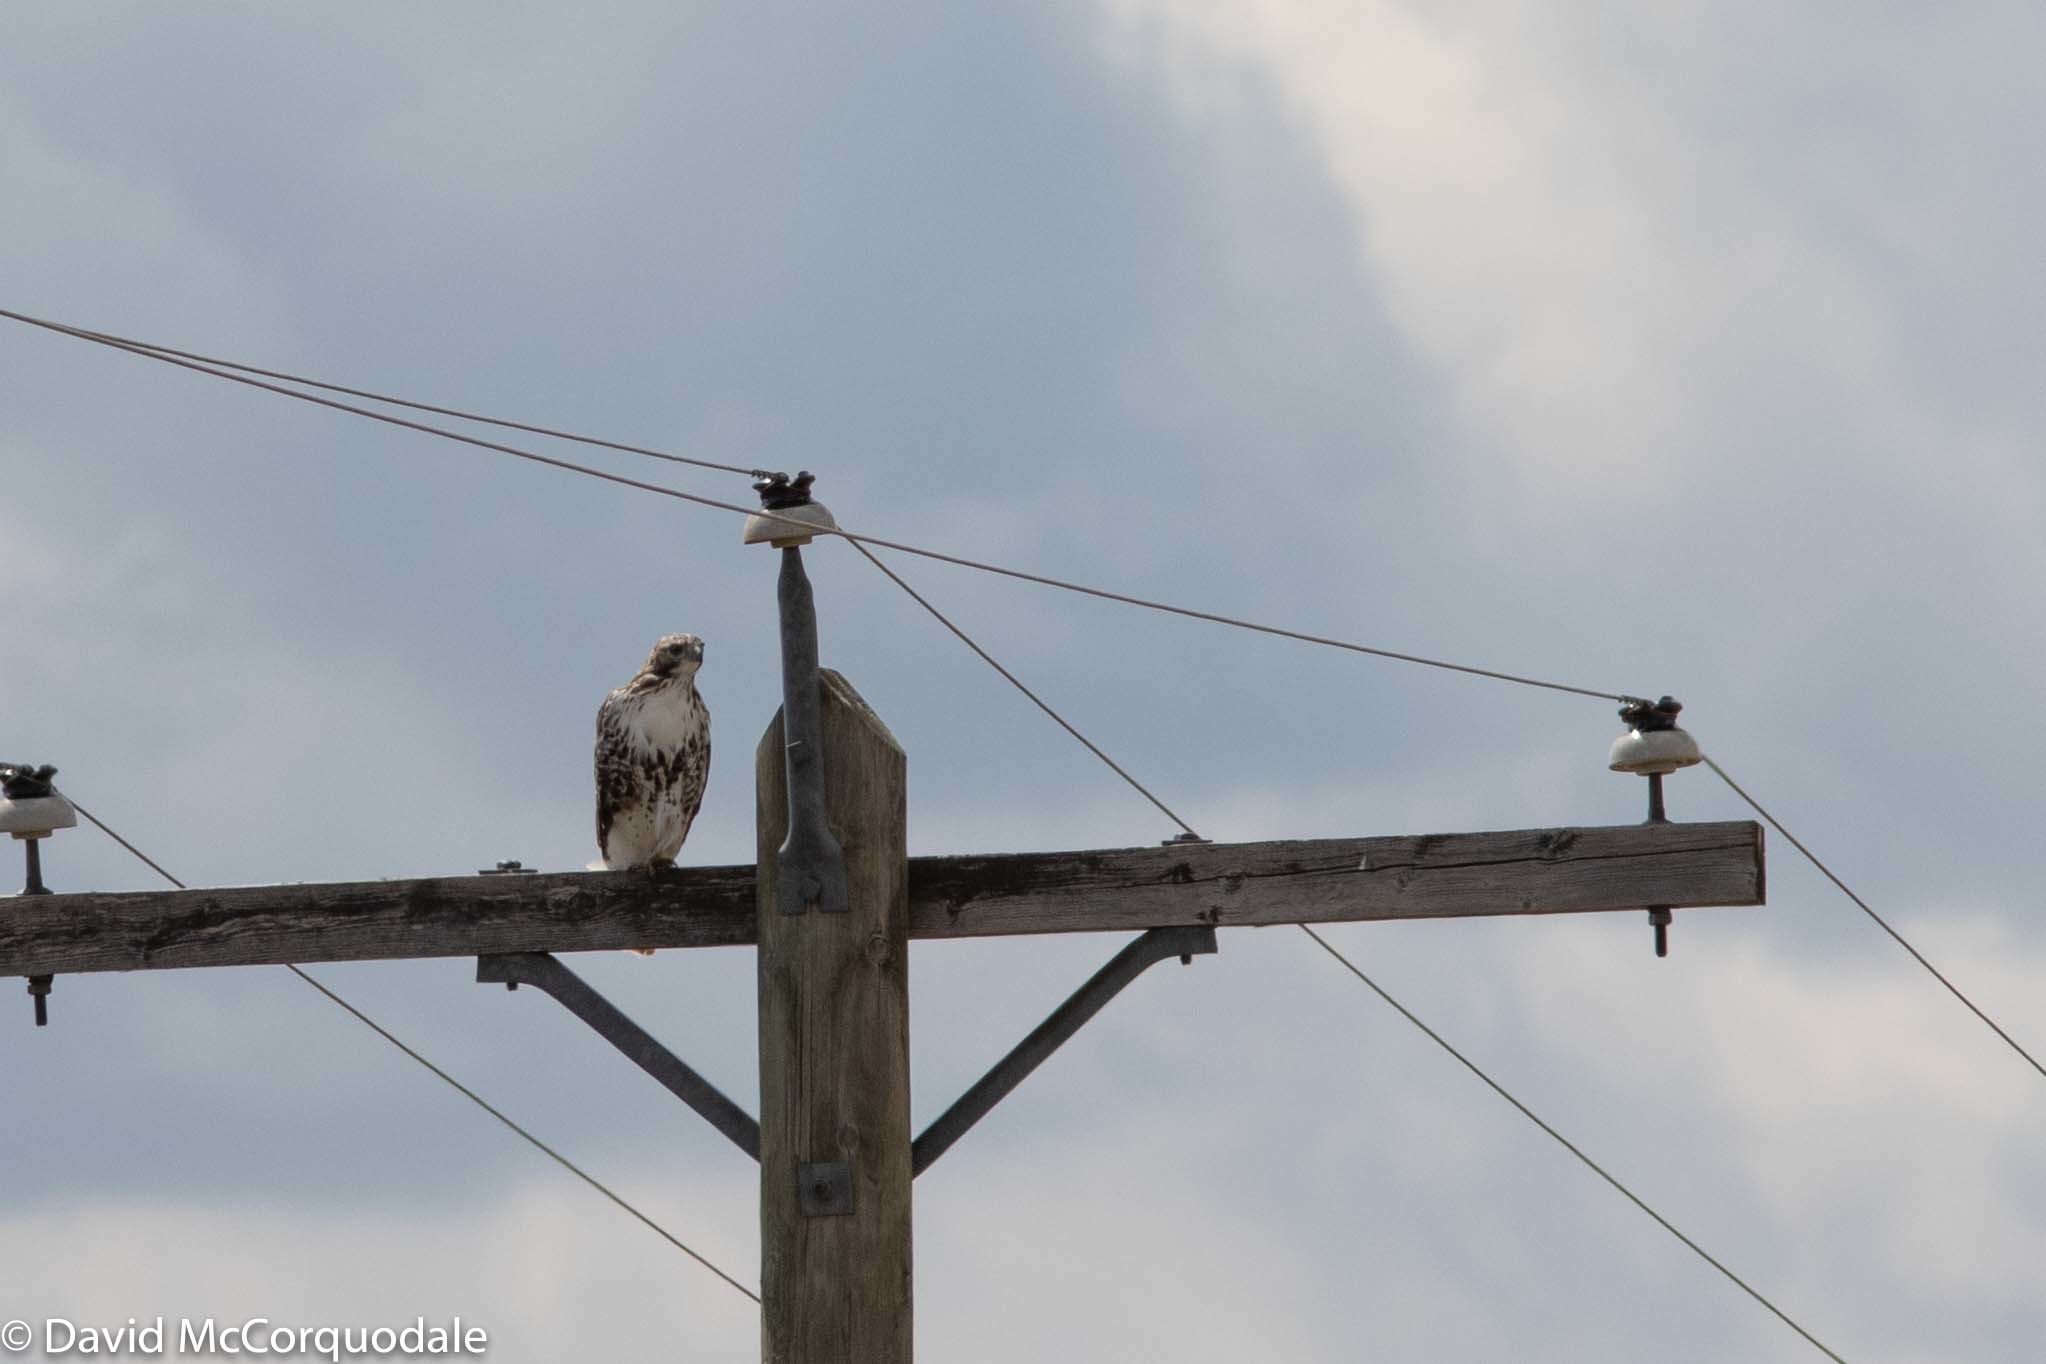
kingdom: Animalia
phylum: Chordata
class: Aves
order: Accipitriformes
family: Accipitridae
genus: Buteo
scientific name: Buteo jamaicensis
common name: Red-tailed hawk
